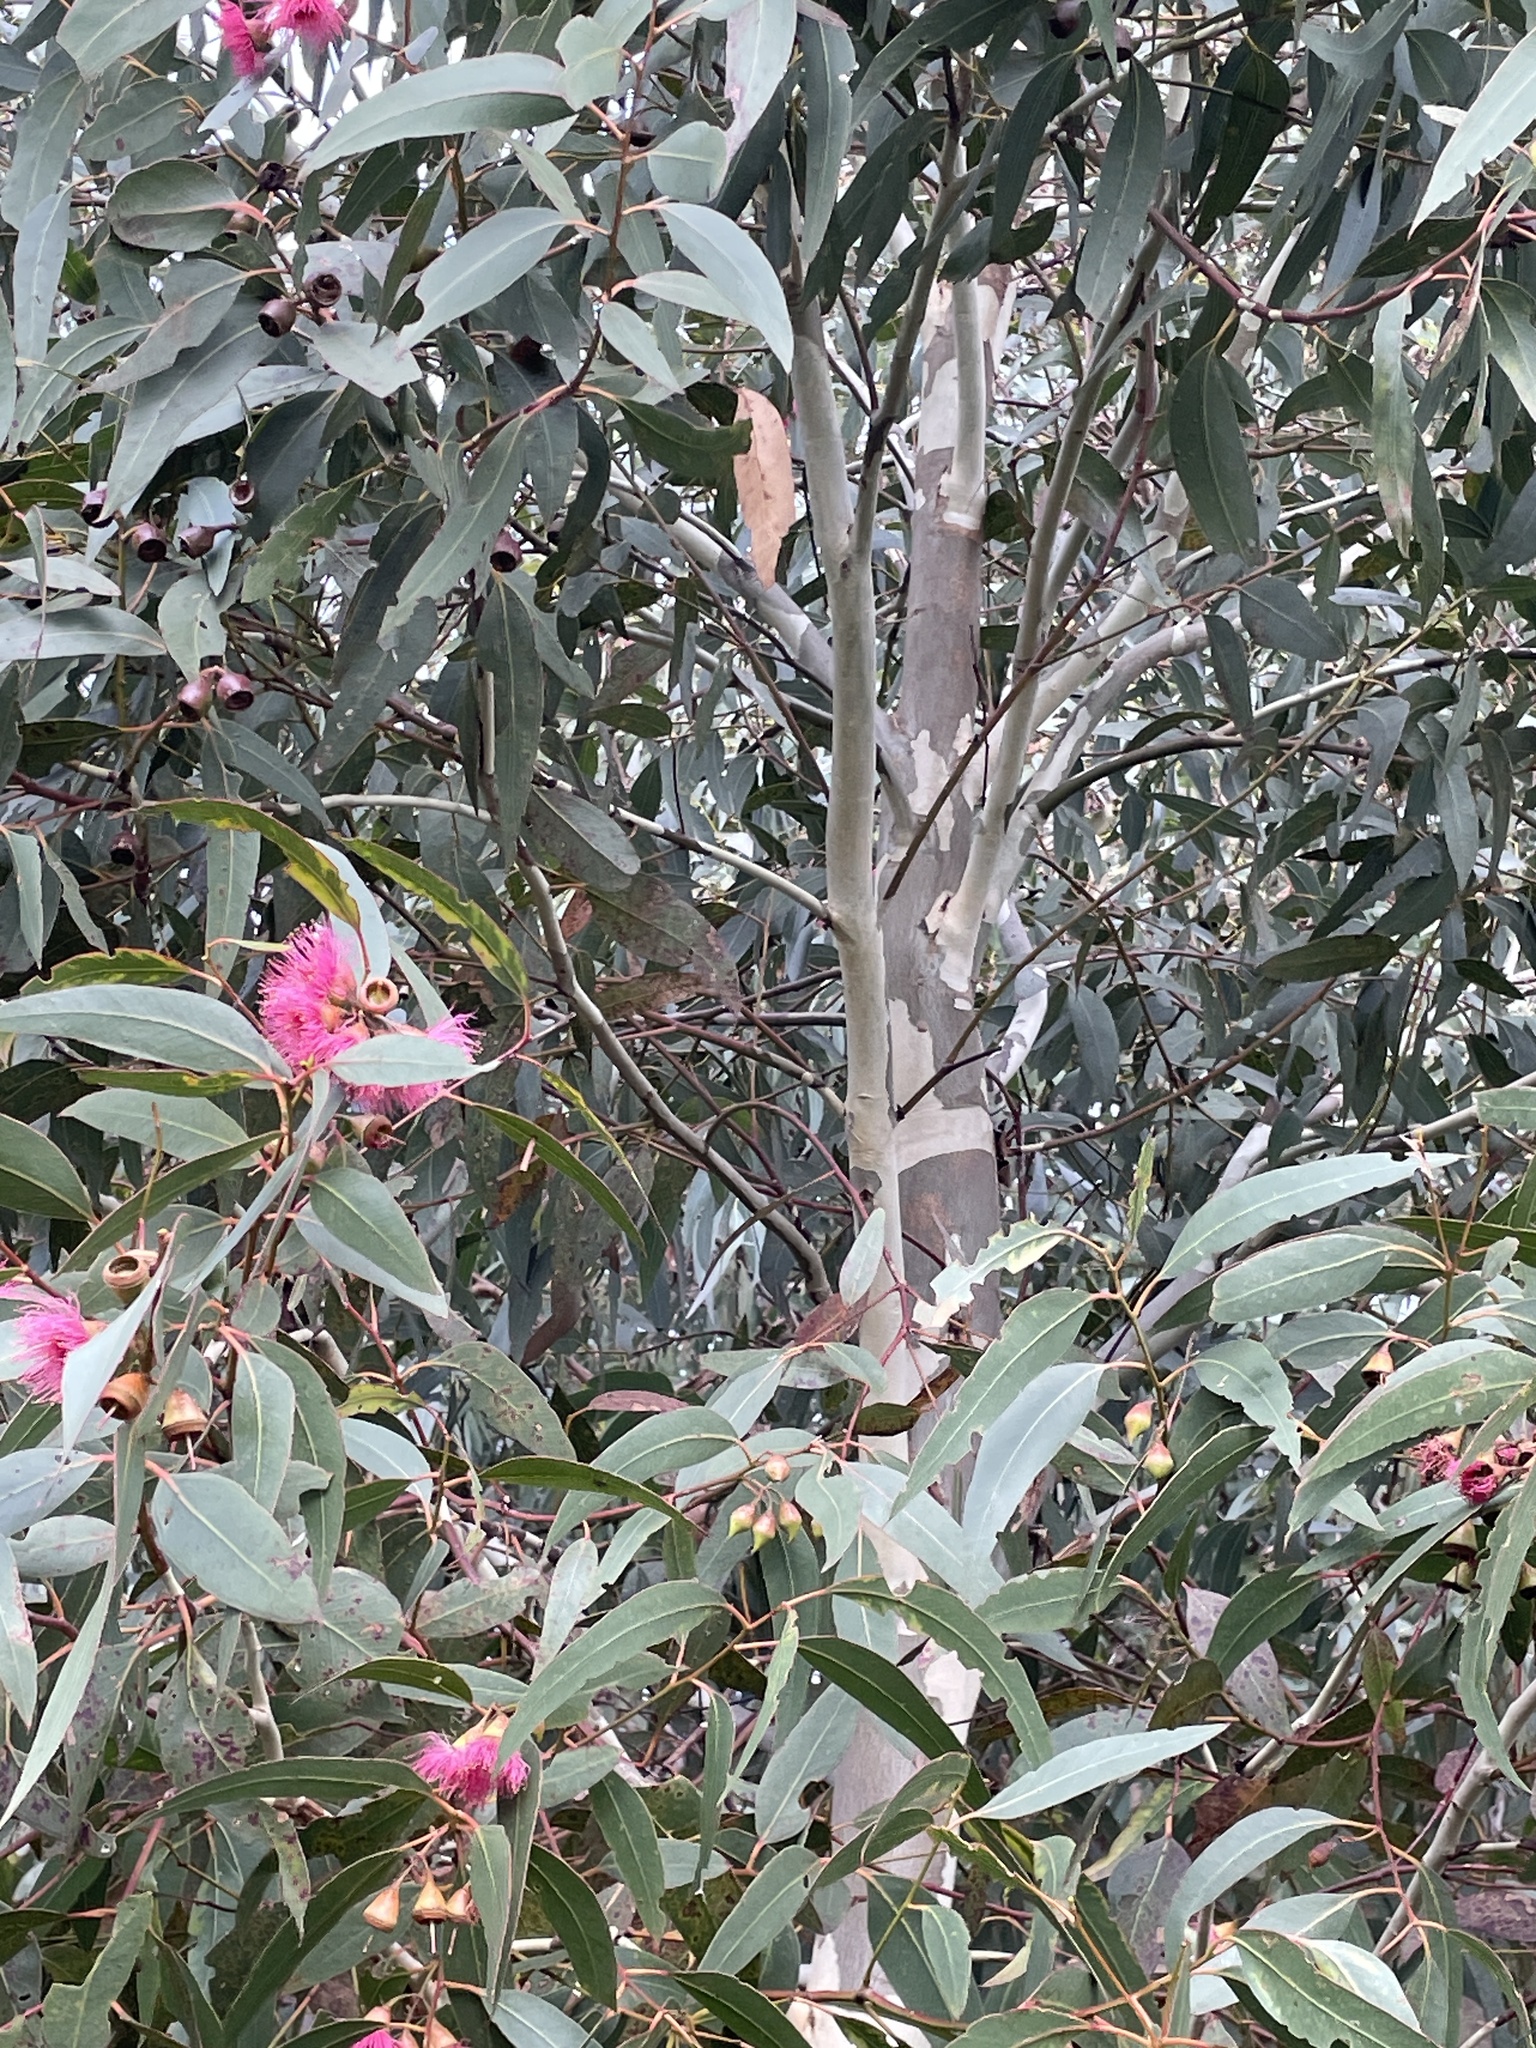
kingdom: Plantae
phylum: Tracheophyta
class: Magnoliopsida
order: Myrtales
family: Myrtaceae
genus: Eucalyptus
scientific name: Eucalyptus leucoxylon
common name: Blue gum
